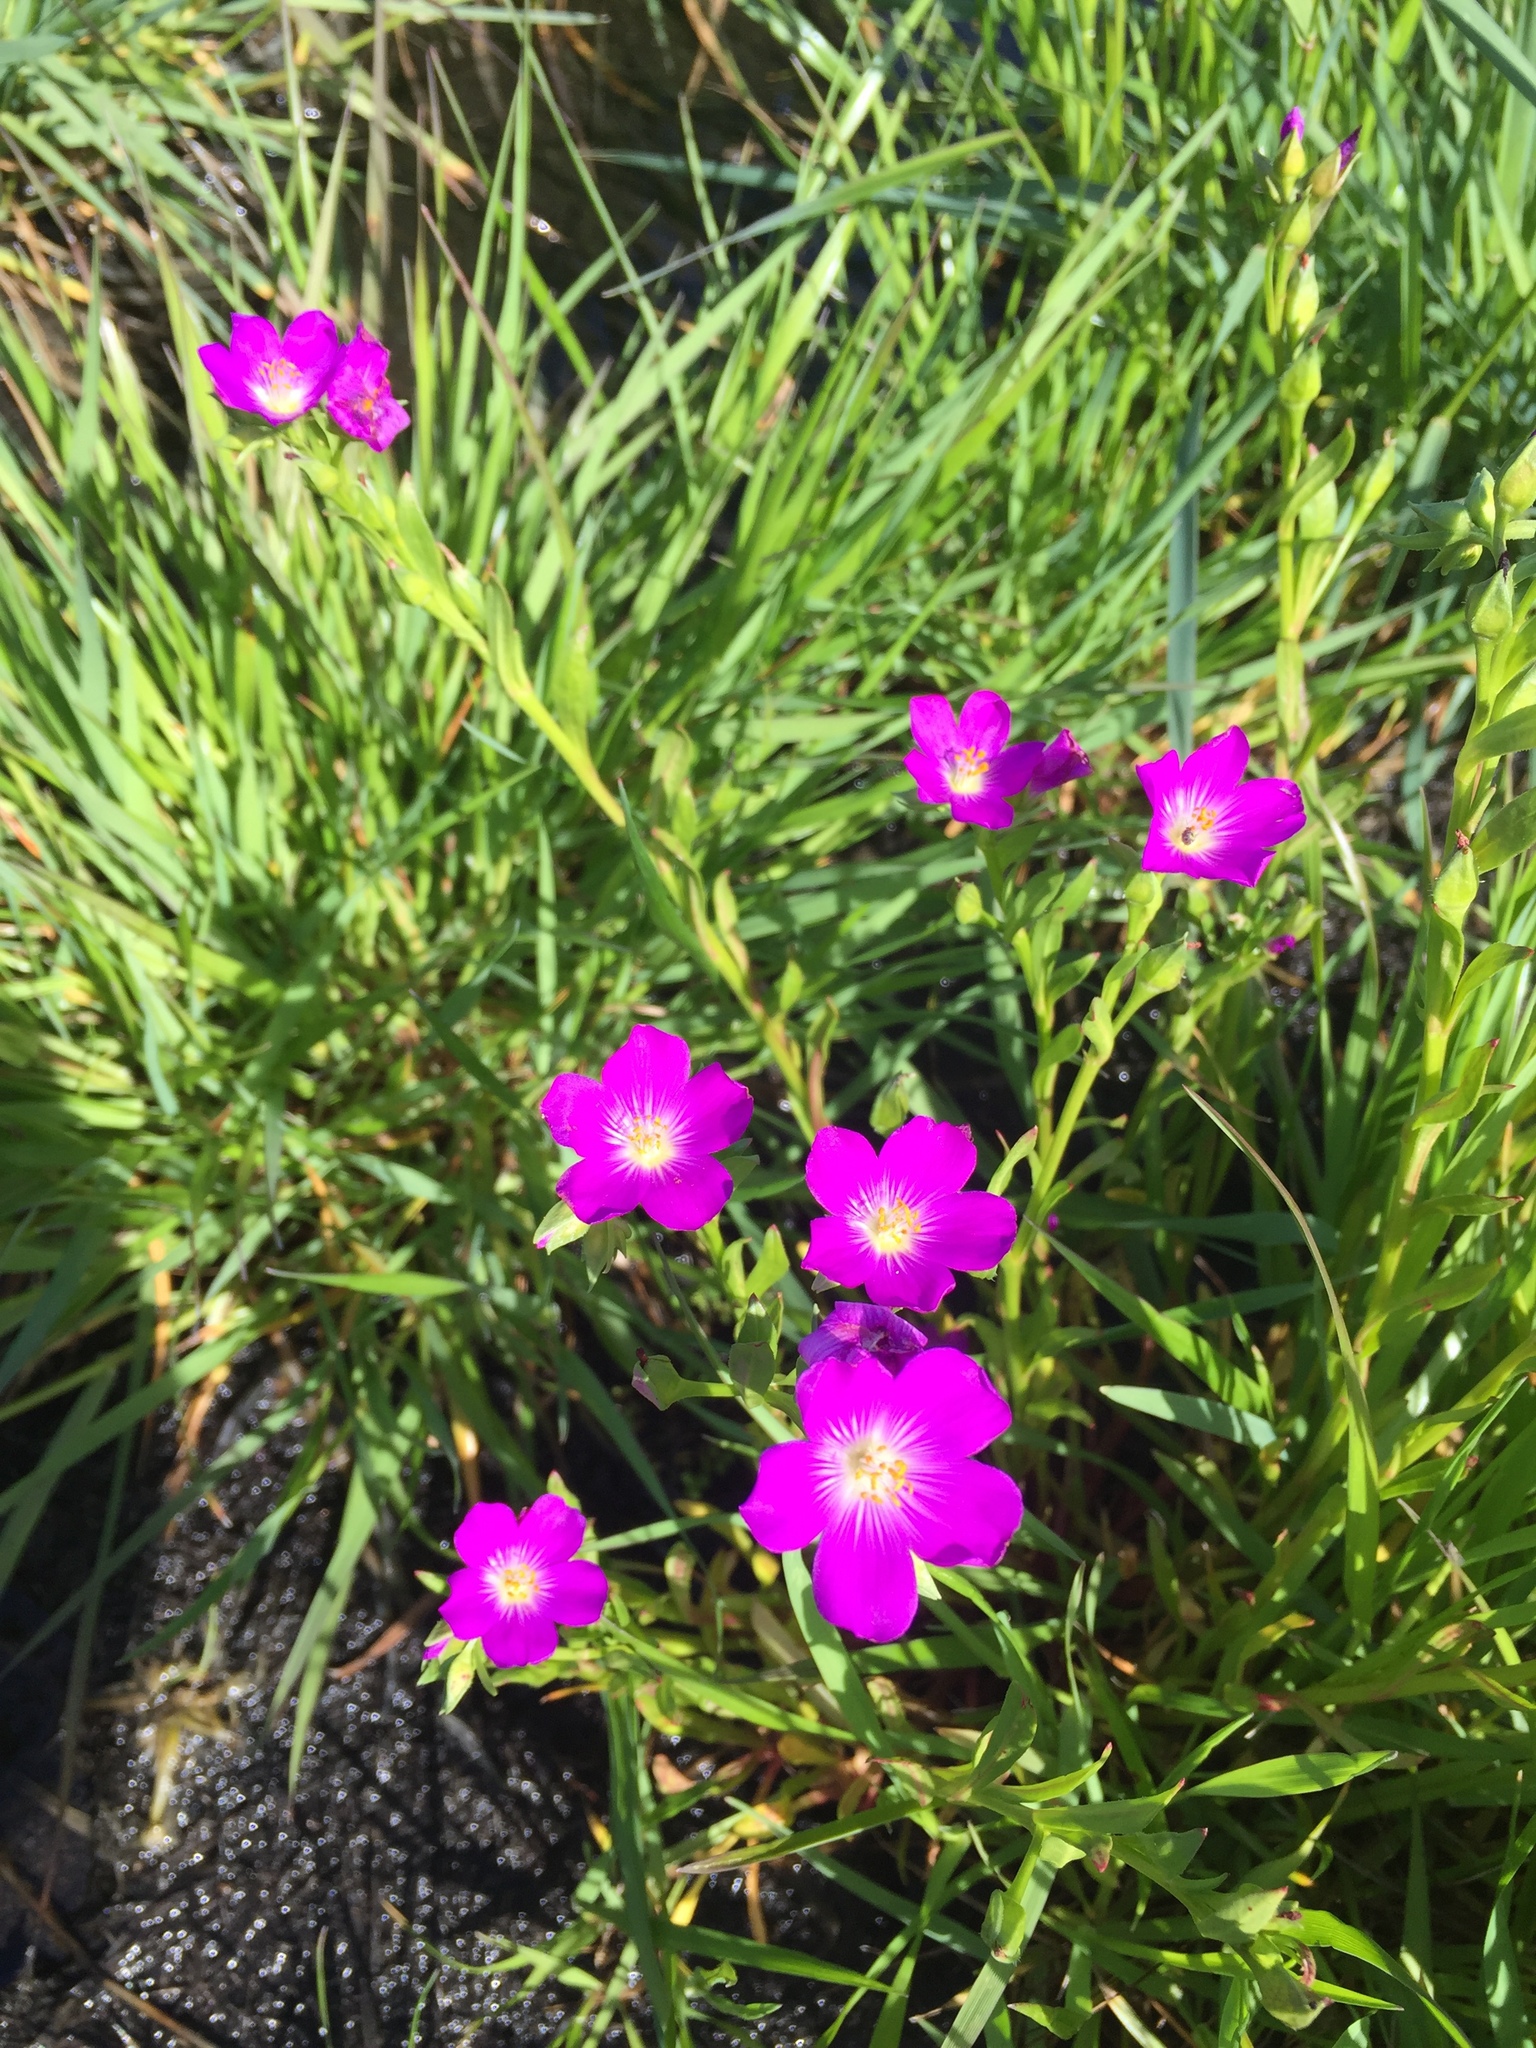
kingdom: Plantae
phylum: Tracheophyta
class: Magnoliopsida
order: Caryophyllales
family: Montiaceae
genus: Calandrinia
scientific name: Calandrinia menziesii
